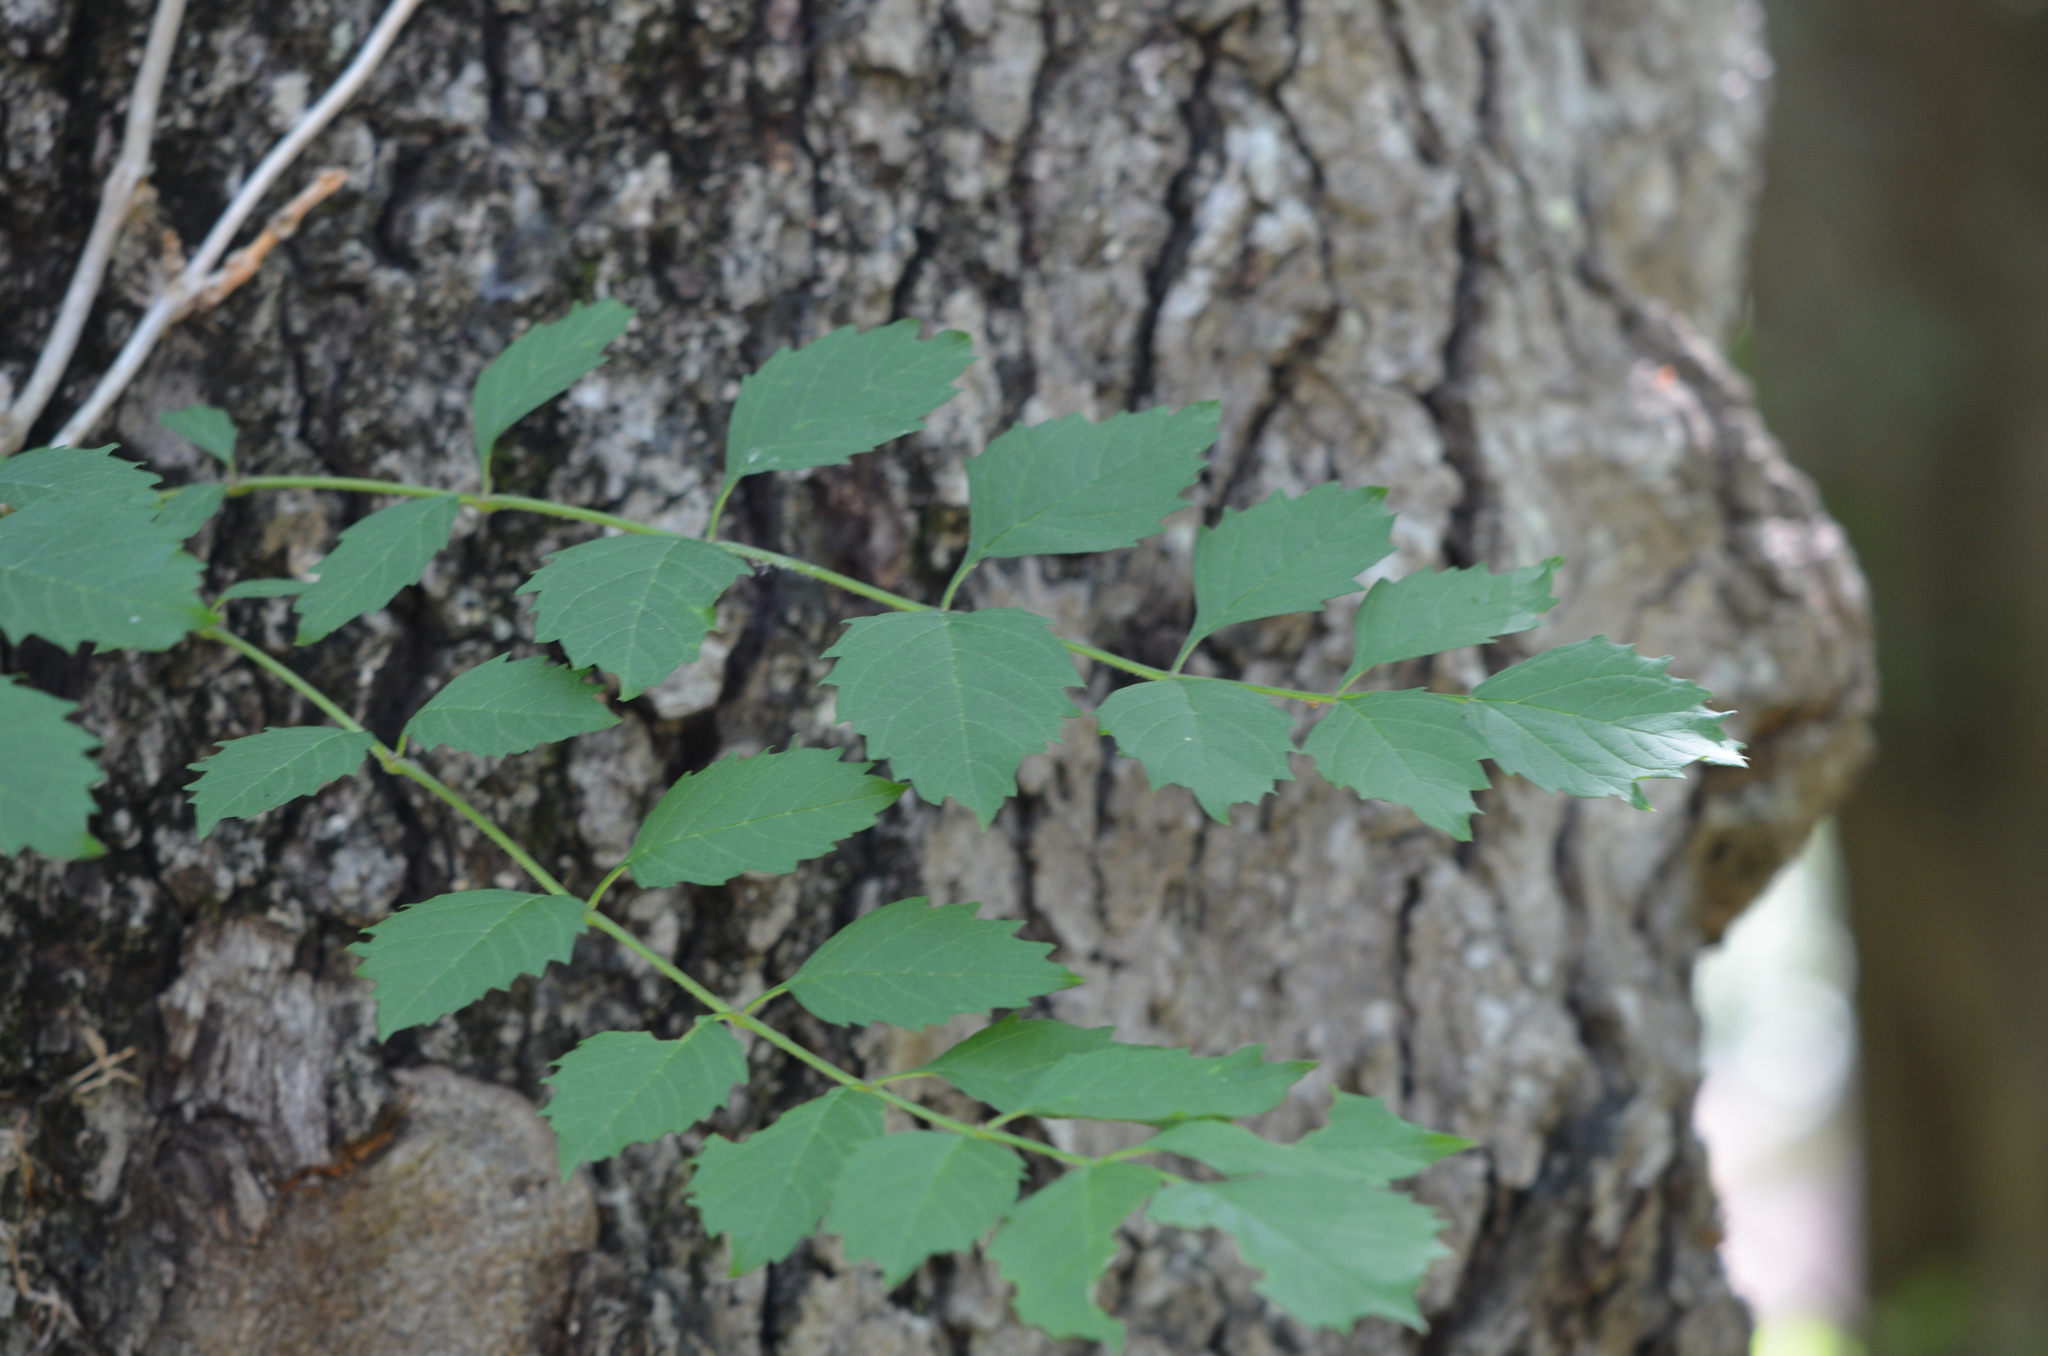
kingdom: Plantae
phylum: Tracheophyta
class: Magnoliopsida
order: Lamiales
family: Bignoniaceae
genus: Campsis
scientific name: Campsis radicans
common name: Trumpet-creeper
